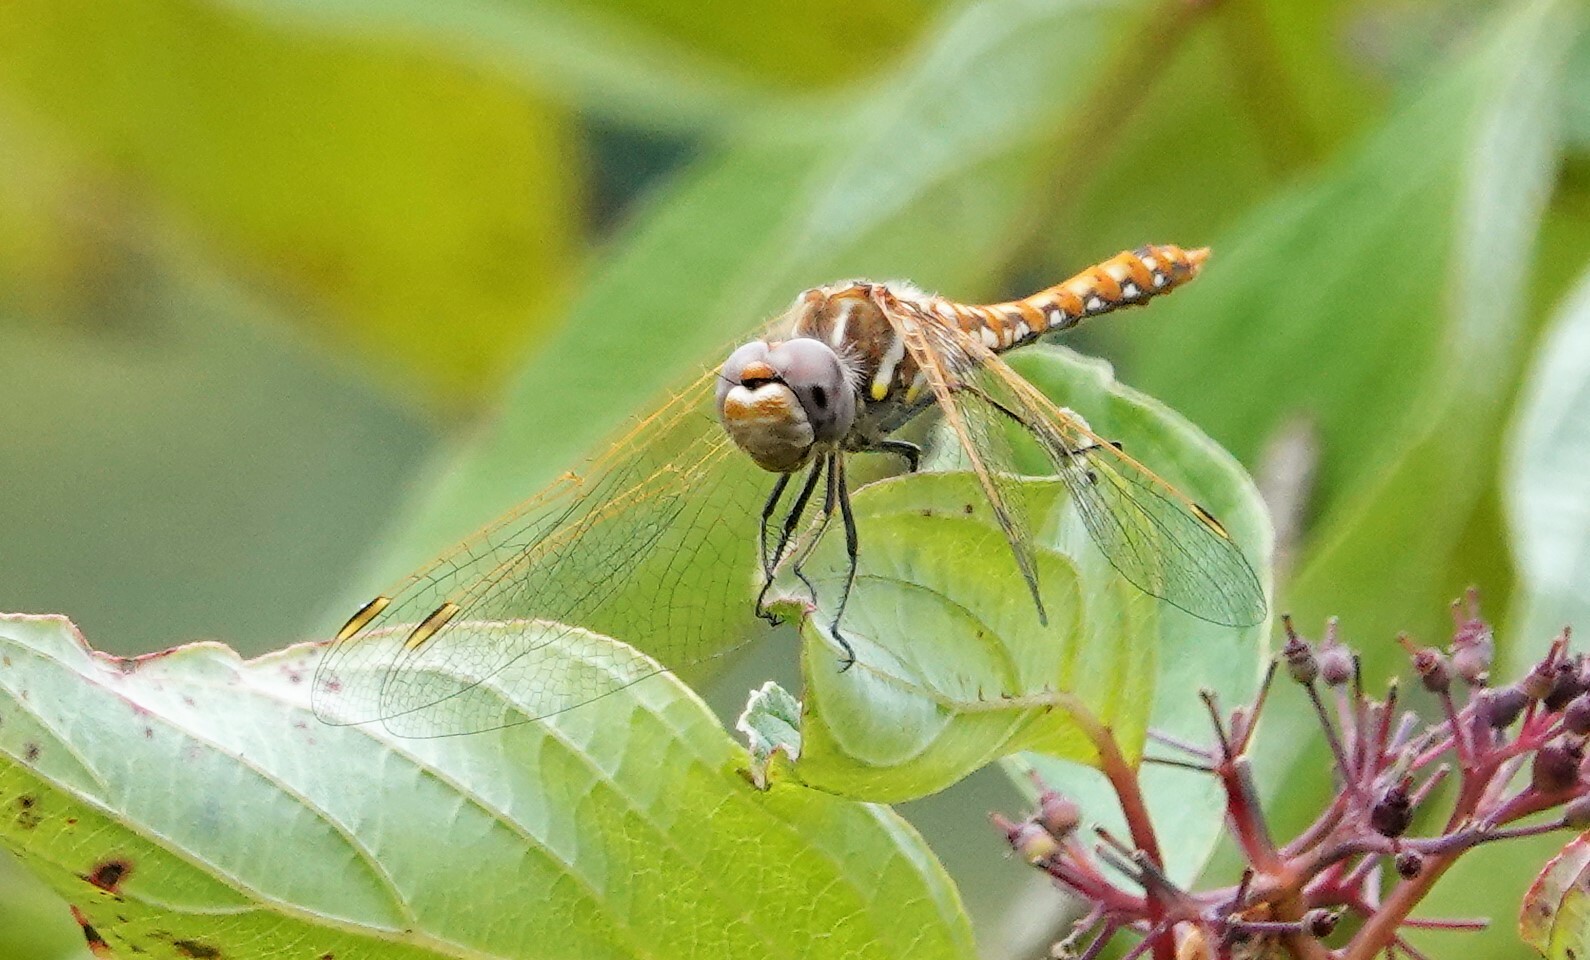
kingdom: Animalia
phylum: Arthropoda
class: Insecta
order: Odonata
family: Libellulidae
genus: Sympetrum
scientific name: Sympetrum corruptum
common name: Variegated meadowhawk
